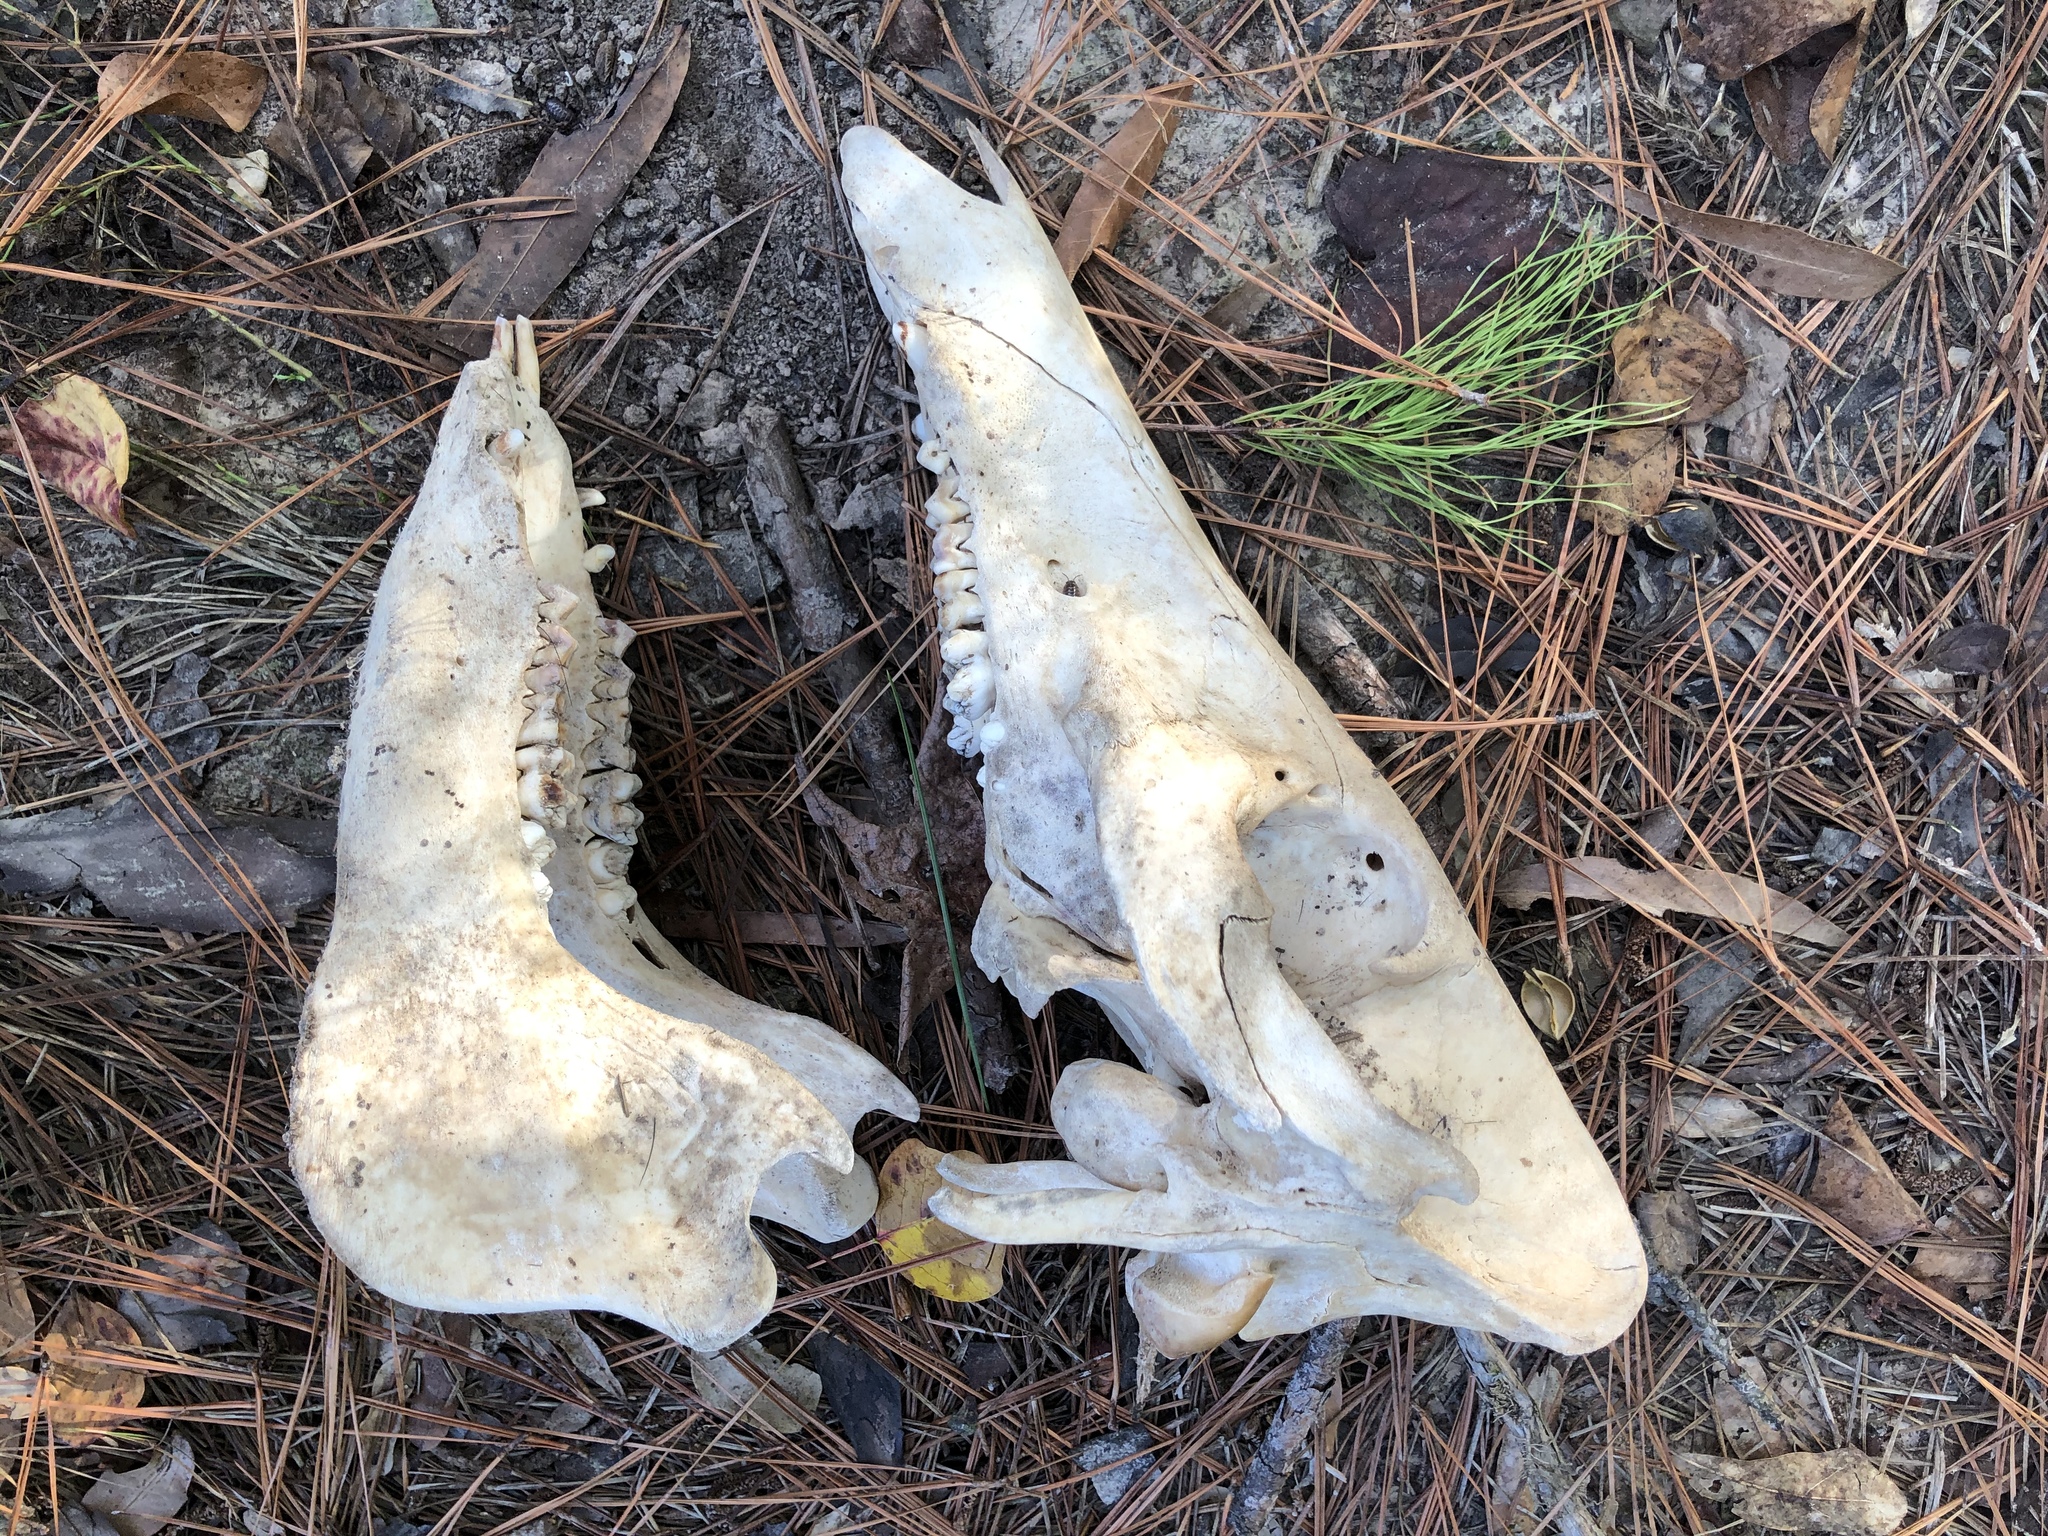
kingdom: Animalia
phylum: Chordata
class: Mammalia
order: Artiodactyla
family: Suidae
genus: Sus
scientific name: Sus scrofa
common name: Wild boar
